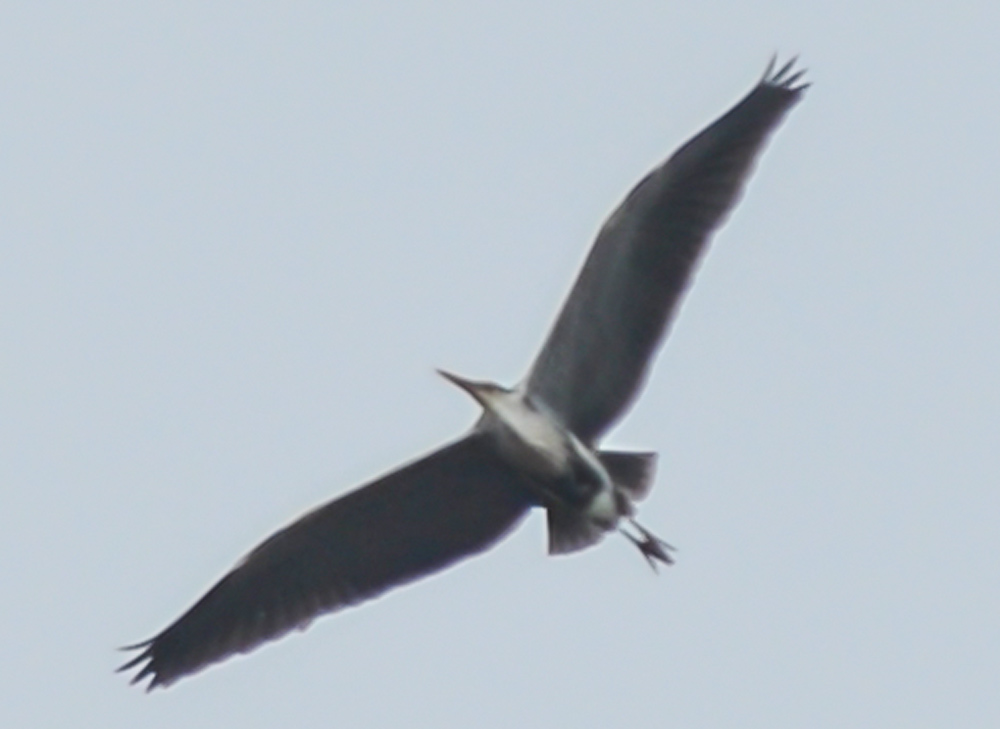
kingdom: Animalia
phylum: Chordata
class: Aves
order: Pelecaniformes
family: Ardeidae
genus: Ardea
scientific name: Ardea cinerea
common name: Grey heron
